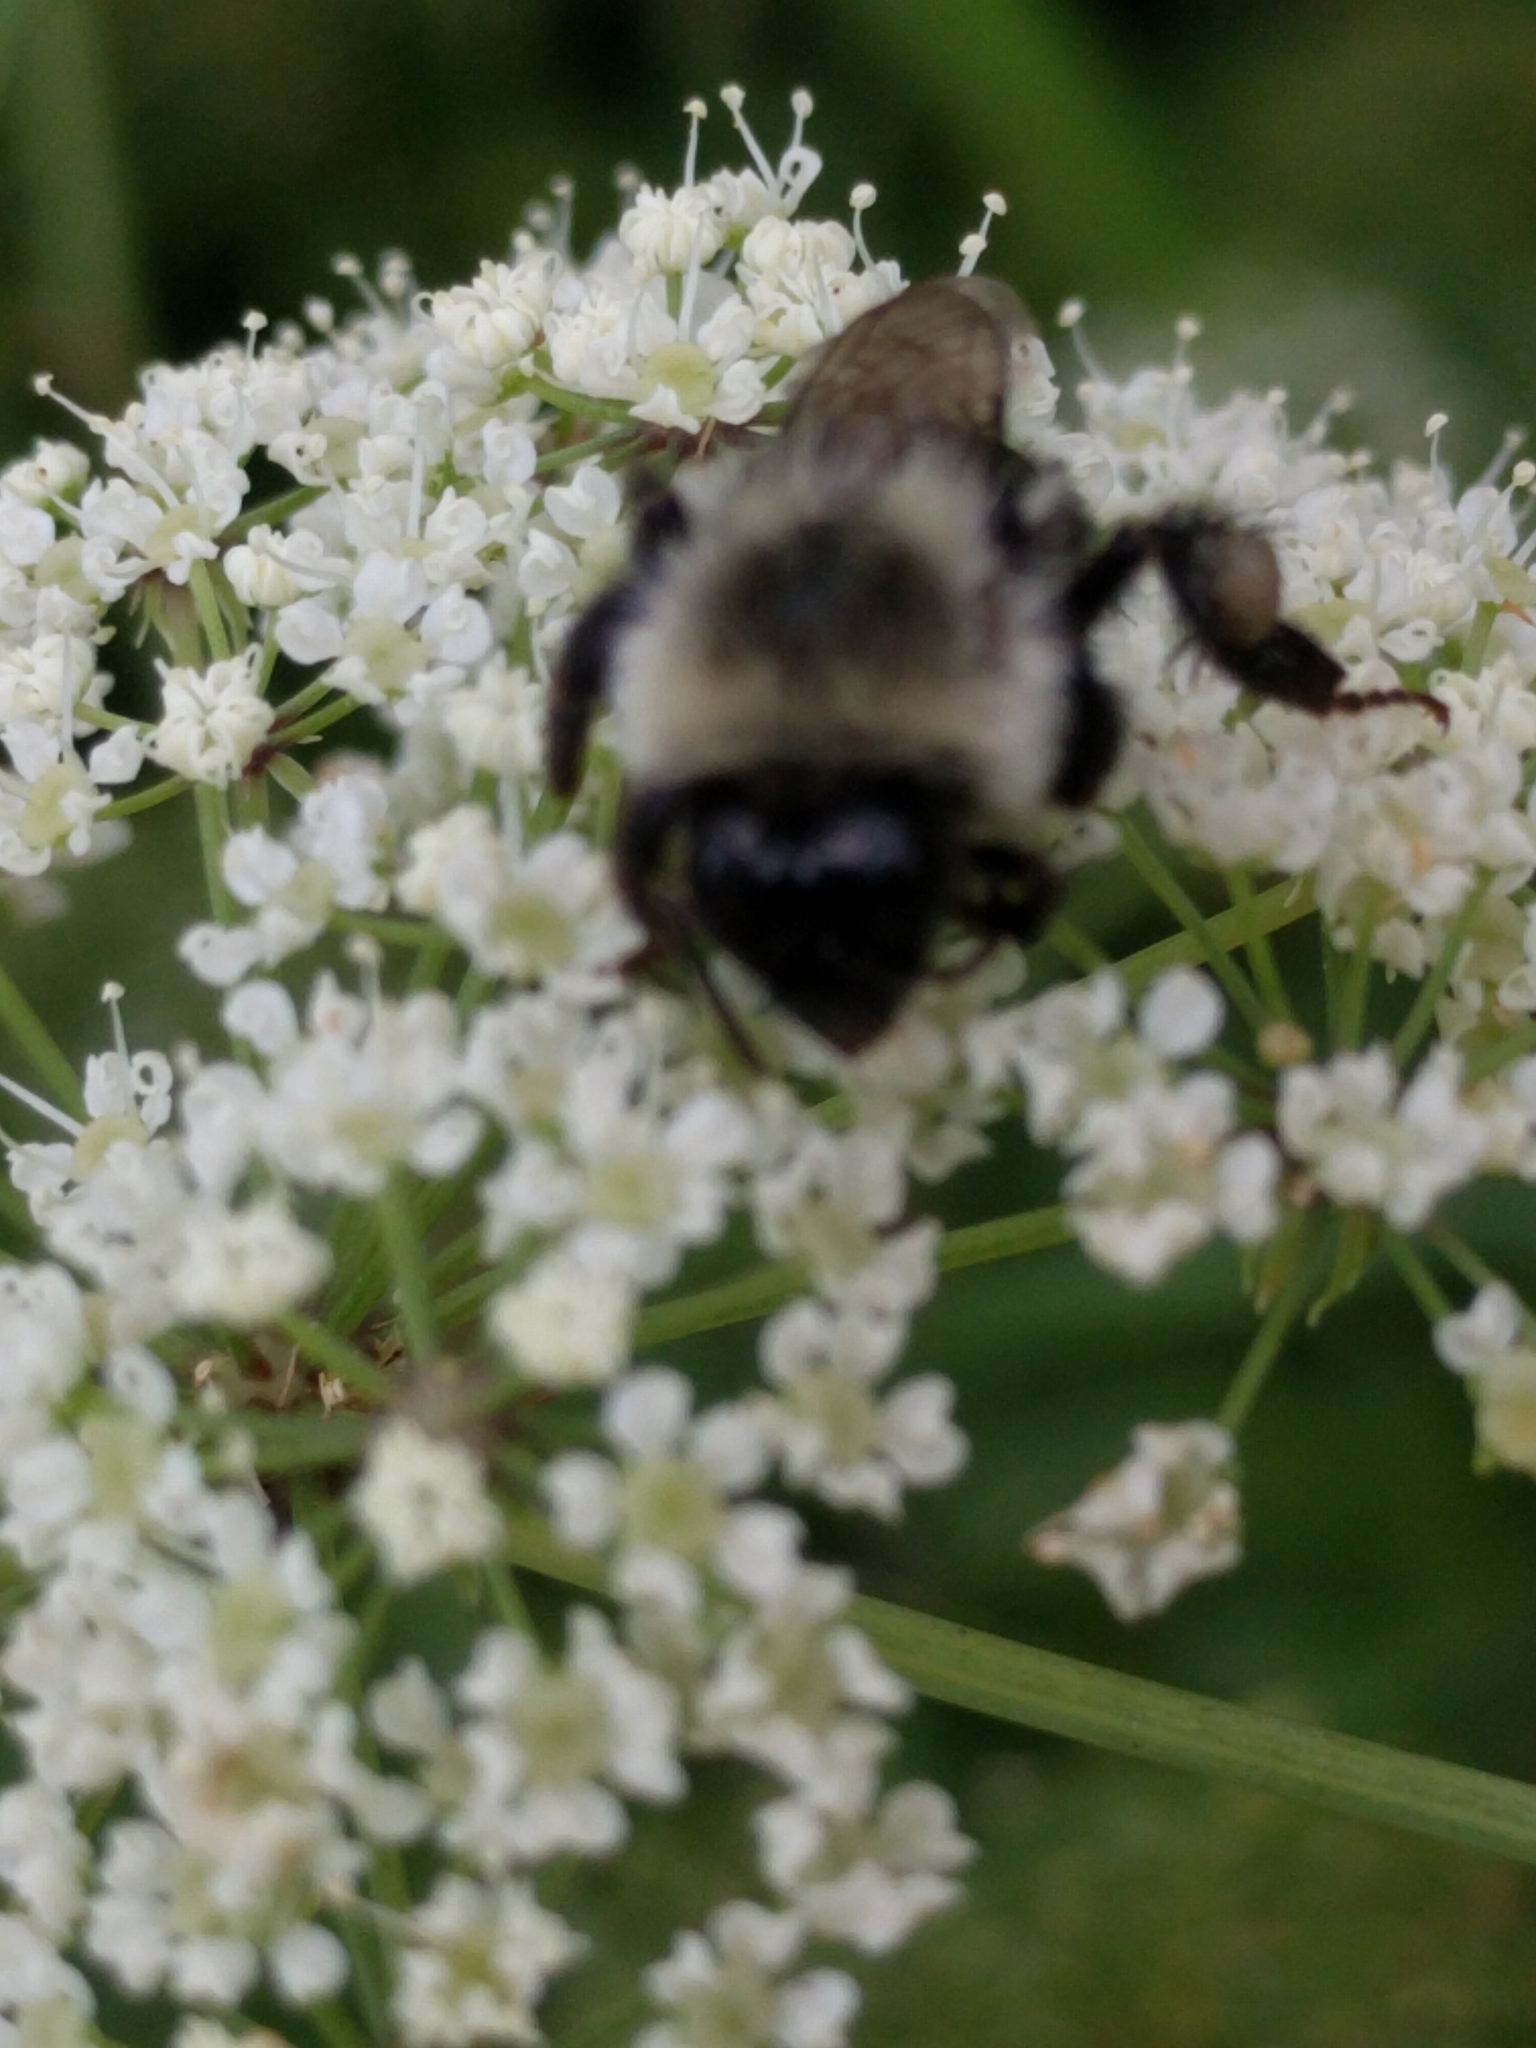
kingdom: Animalia
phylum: Arthropoda
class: Insecta
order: Hymenoptera
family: Apidae
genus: Bombus
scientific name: Bombus impatiens
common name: Common eastern bumble bee
